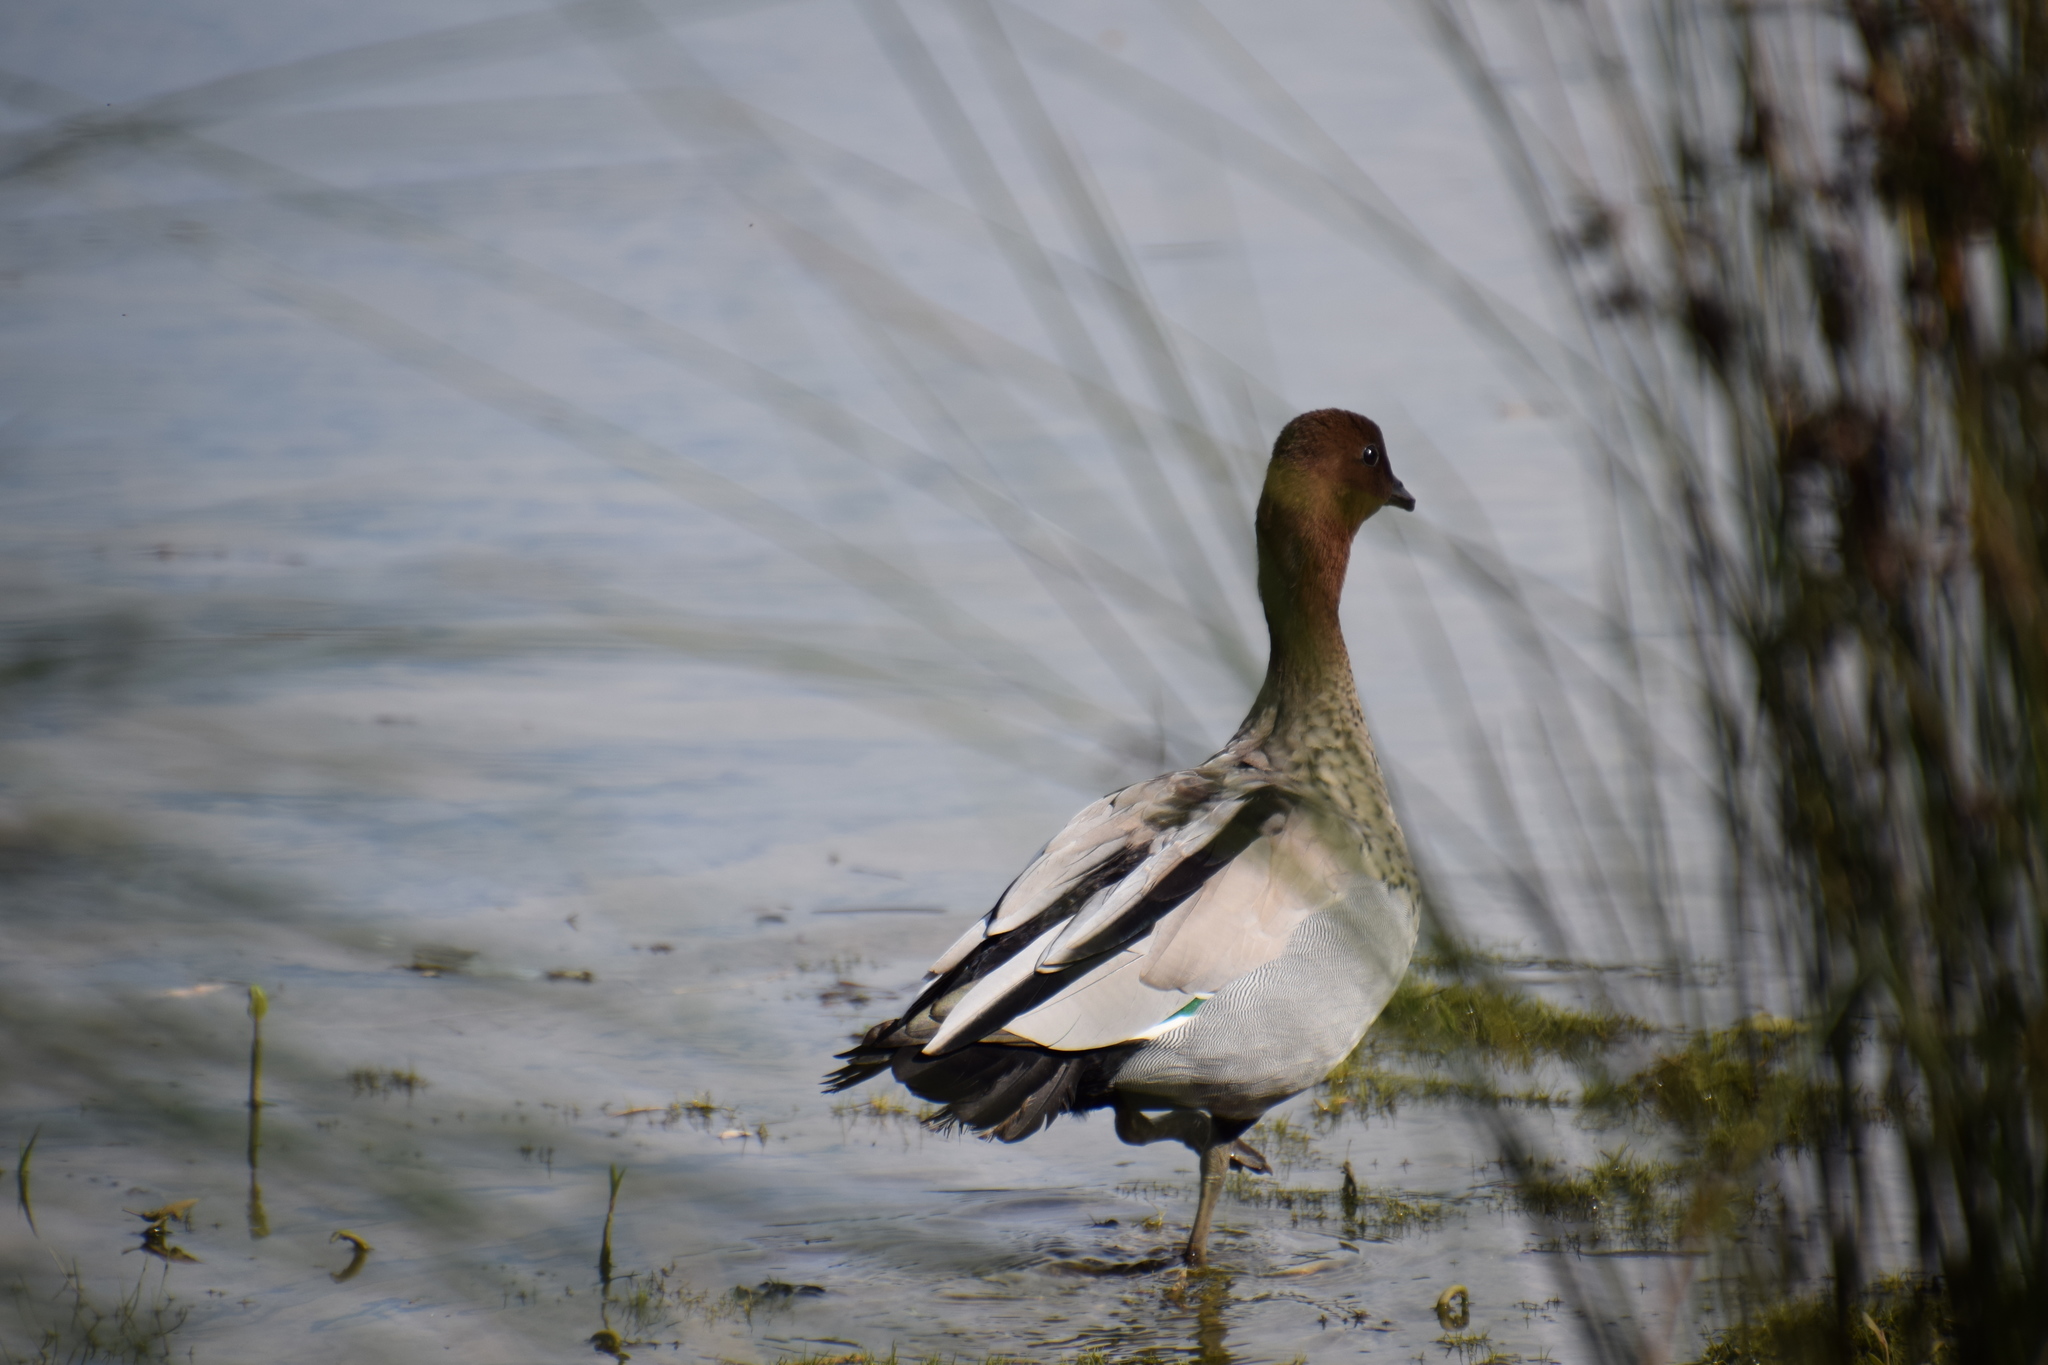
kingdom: Animalia
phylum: Chordata
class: Aves
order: Anseriformes
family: Anatidae
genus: Chenonetta
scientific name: Chenonetta jubata
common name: Maned duck
